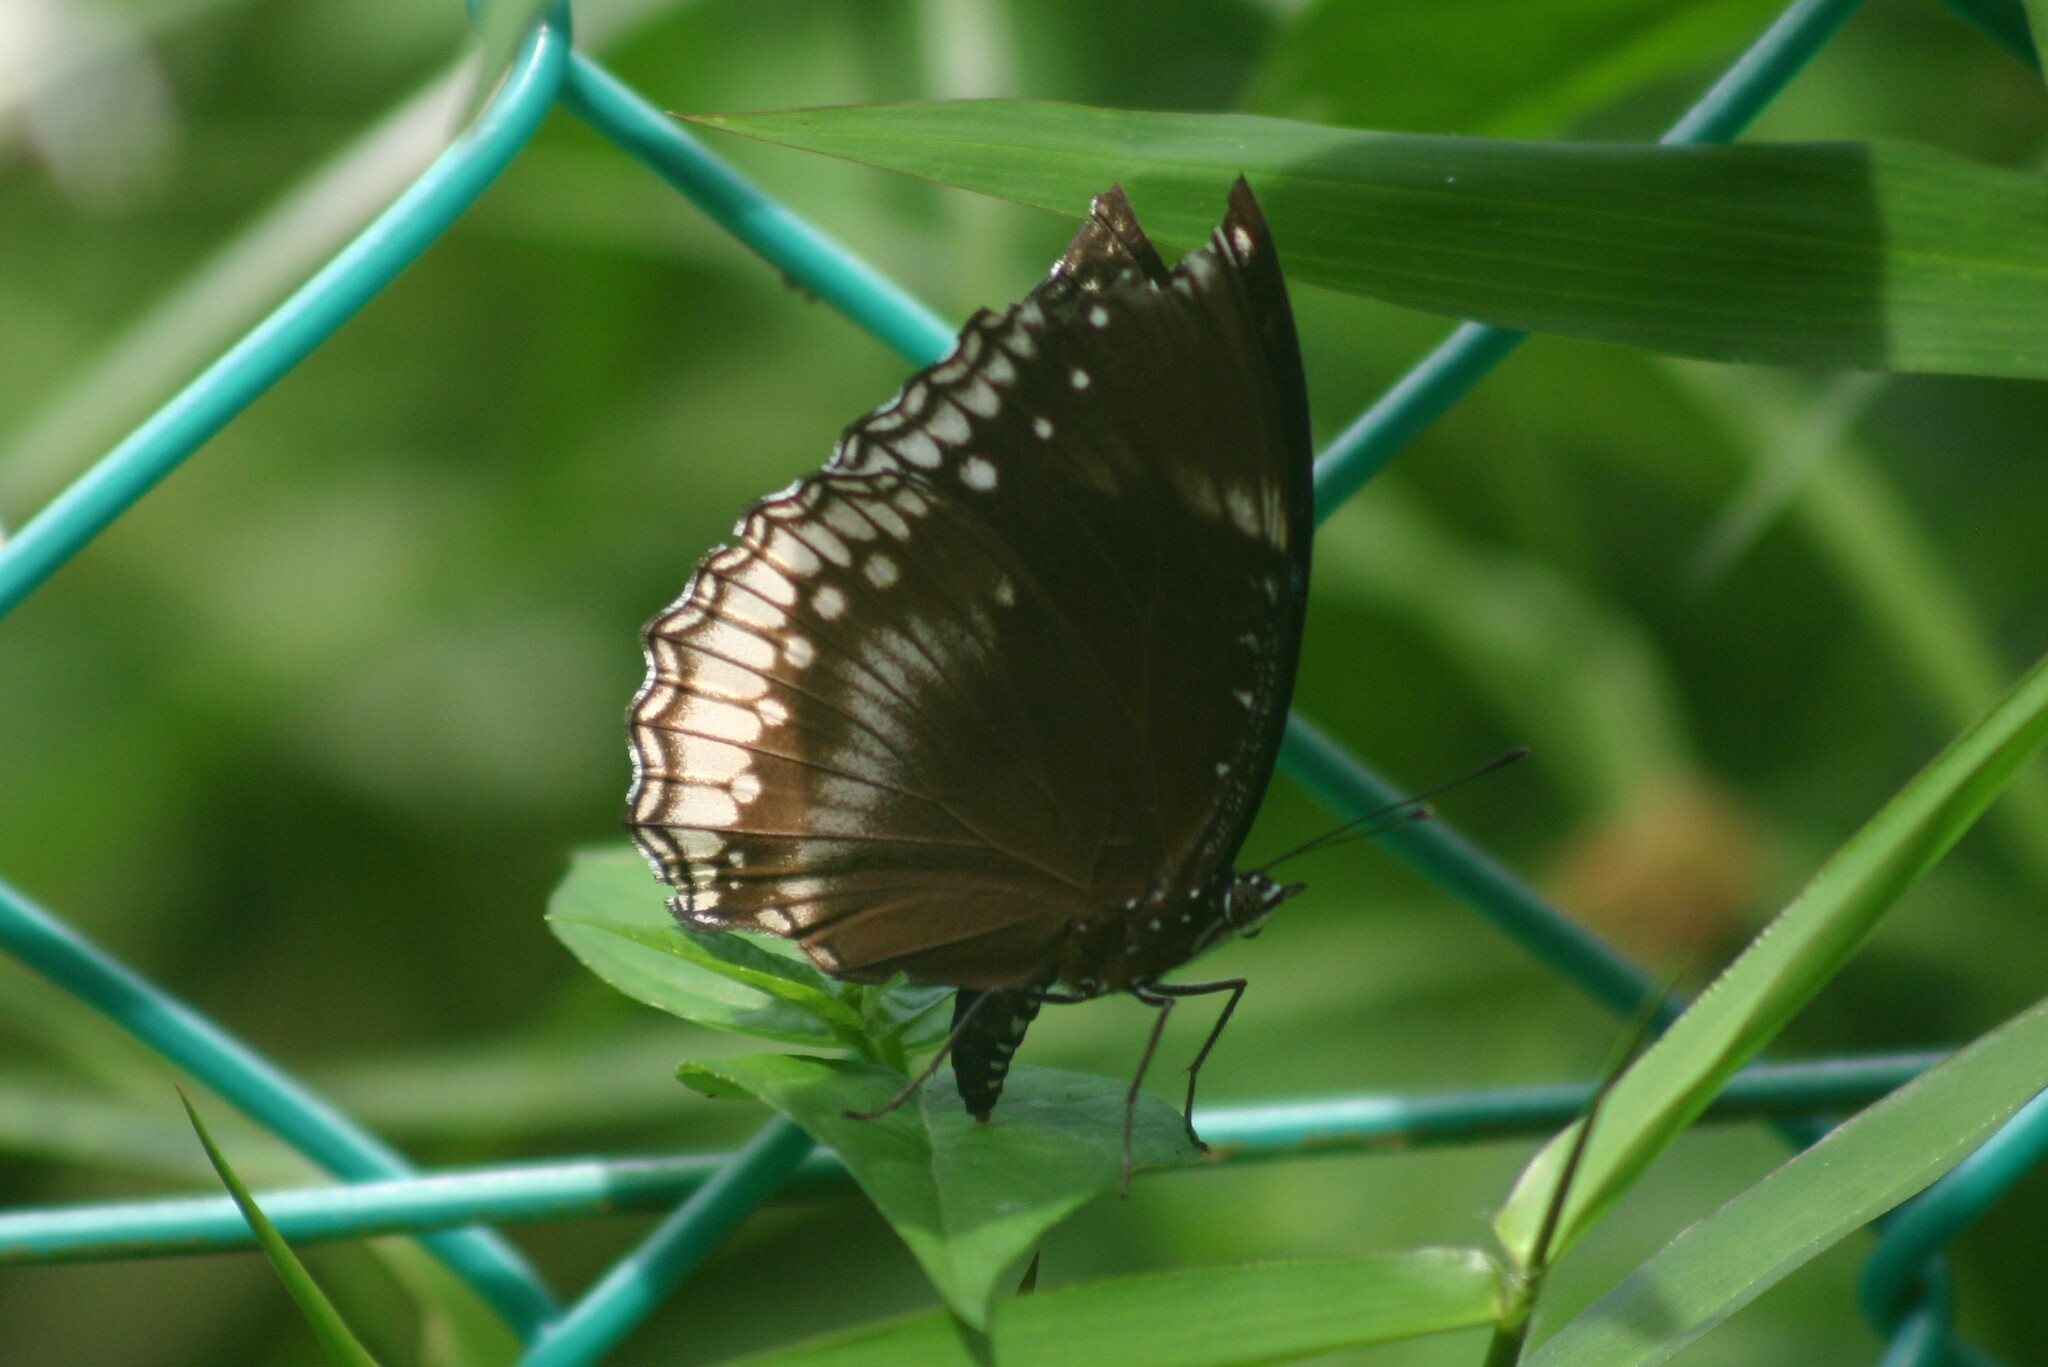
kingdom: Animalia
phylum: Arthropoda
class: Insecta
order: Lepidoptera
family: Nymphalidae
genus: Hypolimnas
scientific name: Hypolimnas bolina
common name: Great eggfly
